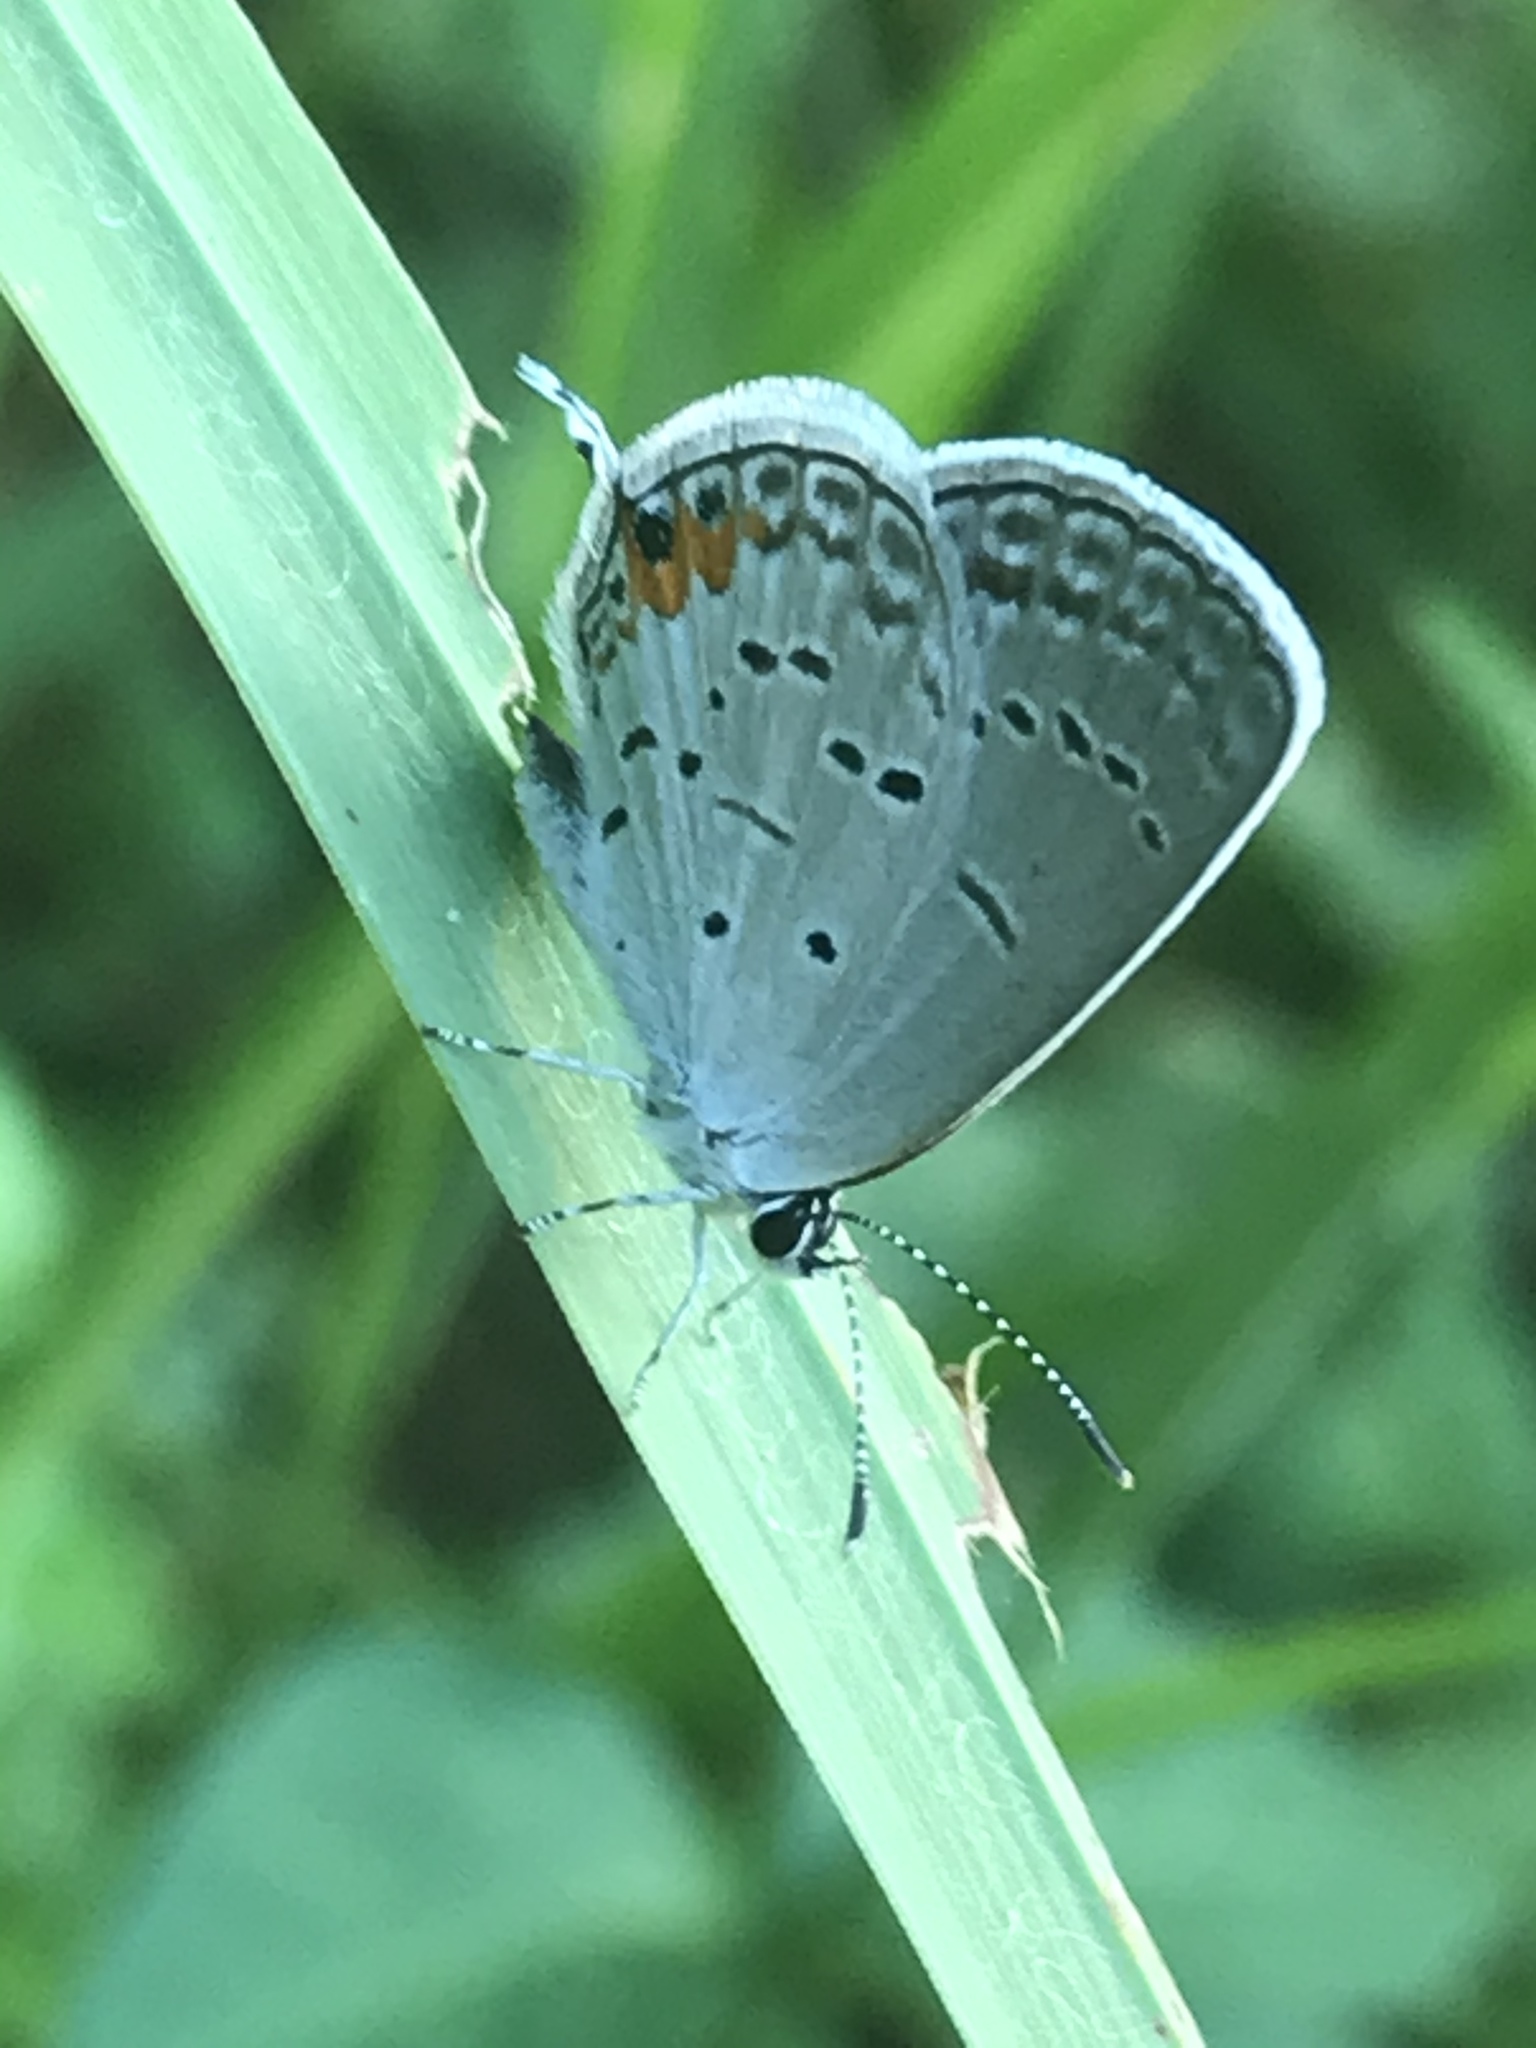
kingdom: Animalia
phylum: Arthropoda
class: Insecta
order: Lepidoptera
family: Lycaenidae
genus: Elkalyce
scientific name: Elkalyce comyntas
